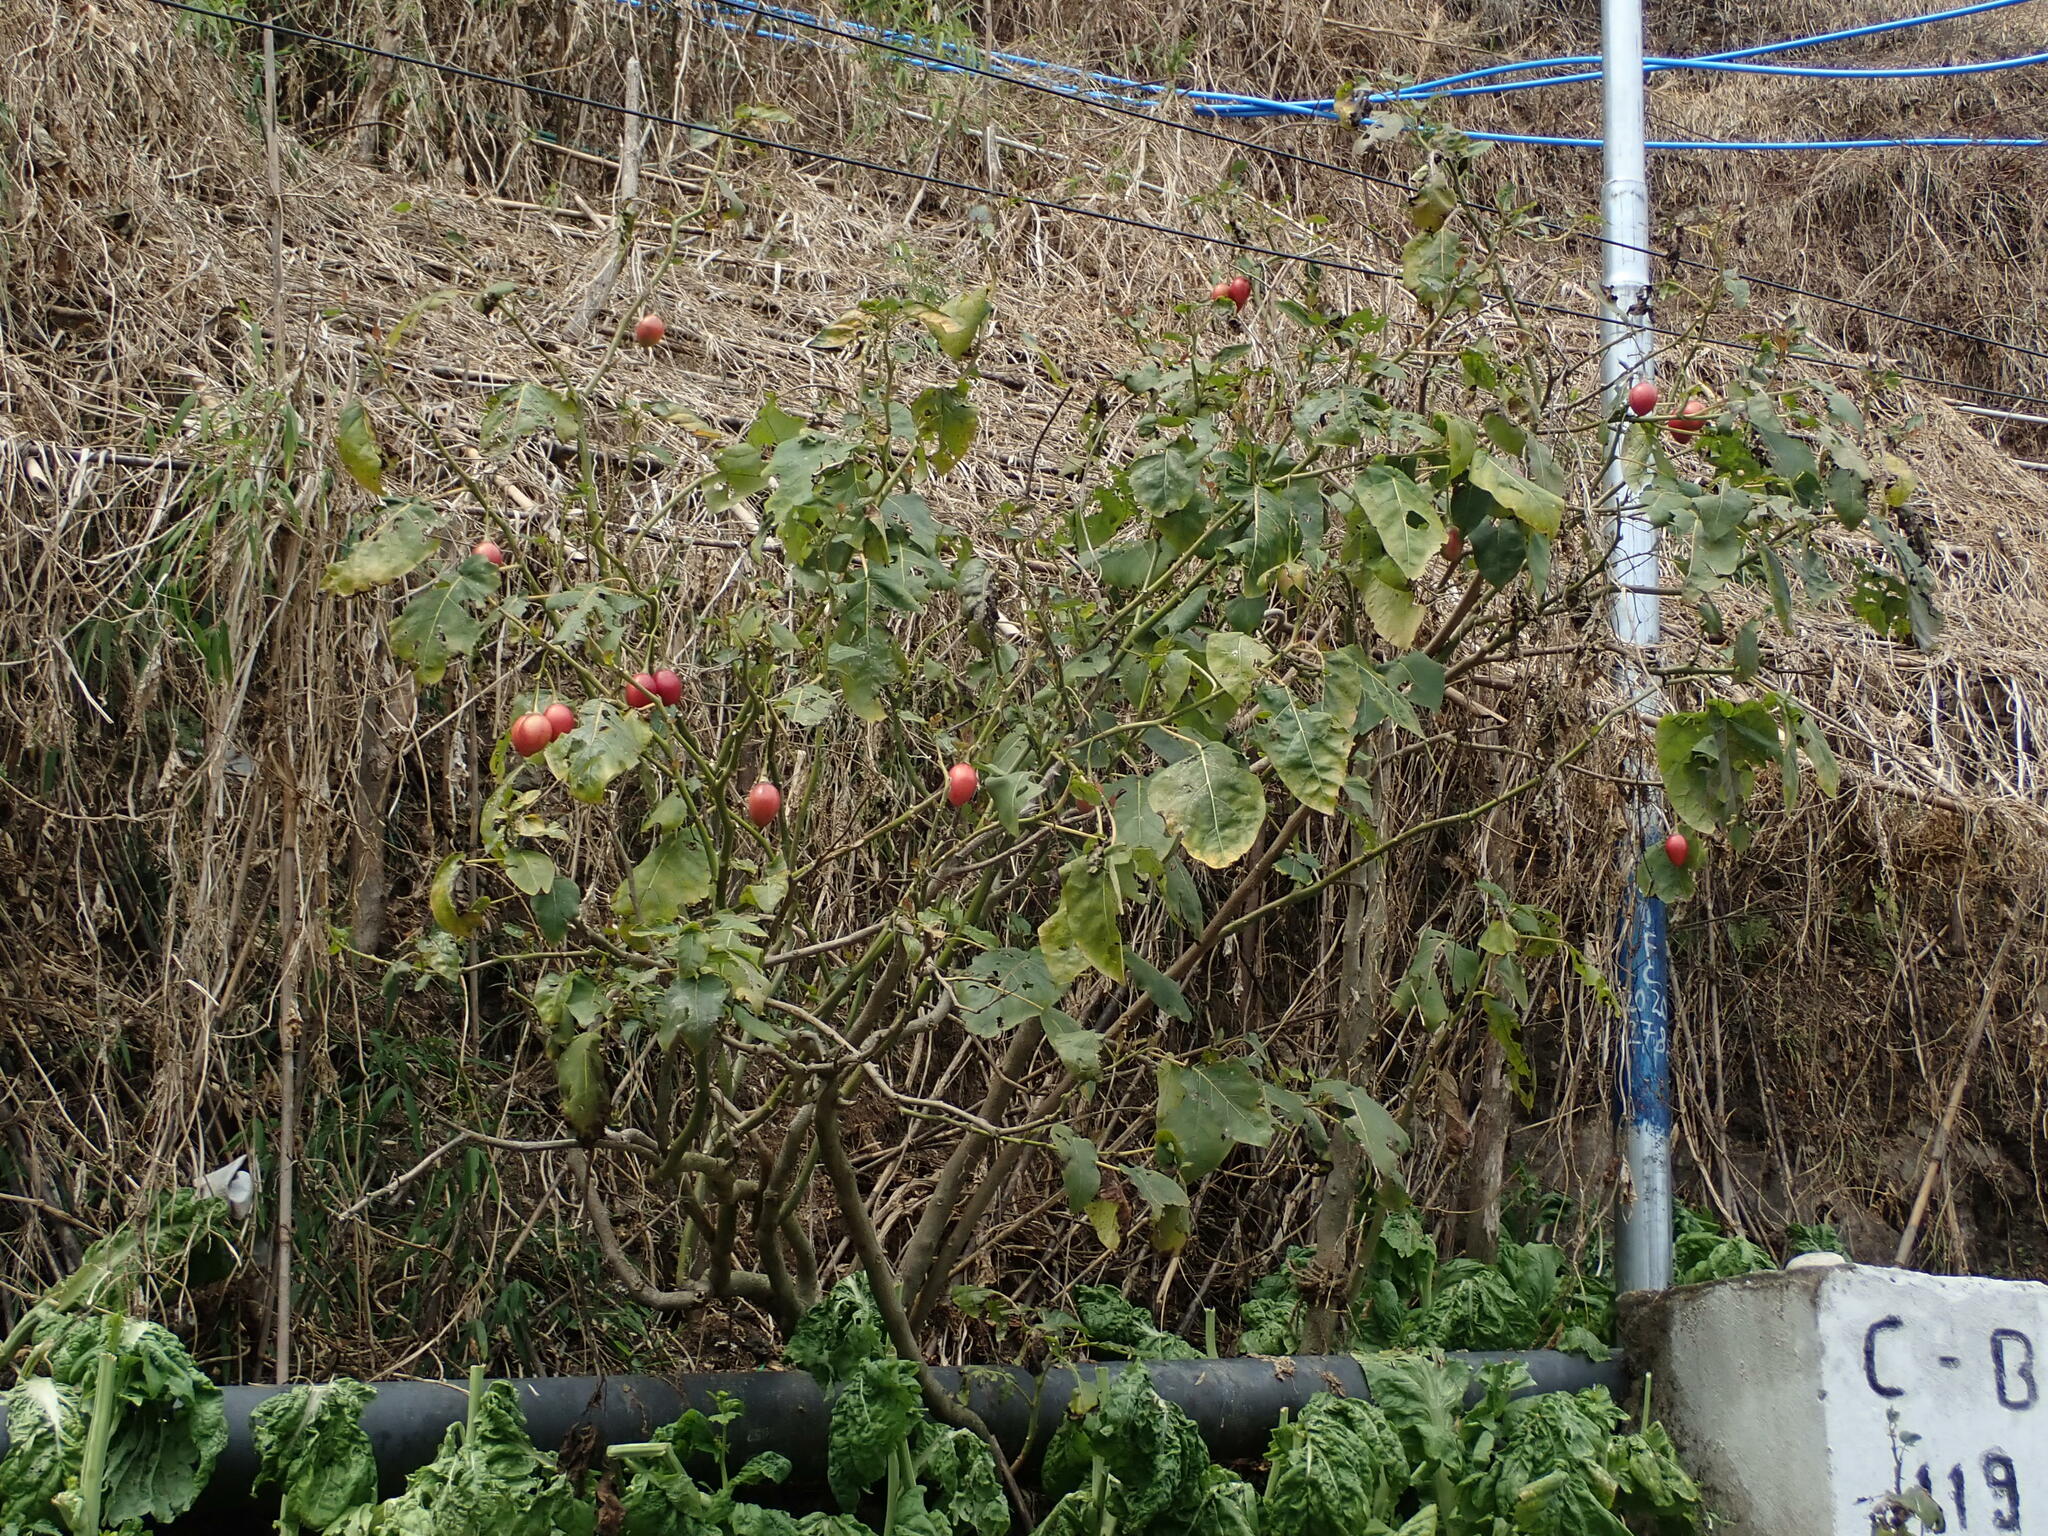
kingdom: Plantae
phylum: Tracheophyta
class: Magnoliopsida
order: Solanales
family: Solanaceae
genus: Solanum
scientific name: Solanum betaceum
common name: Tamarillo
